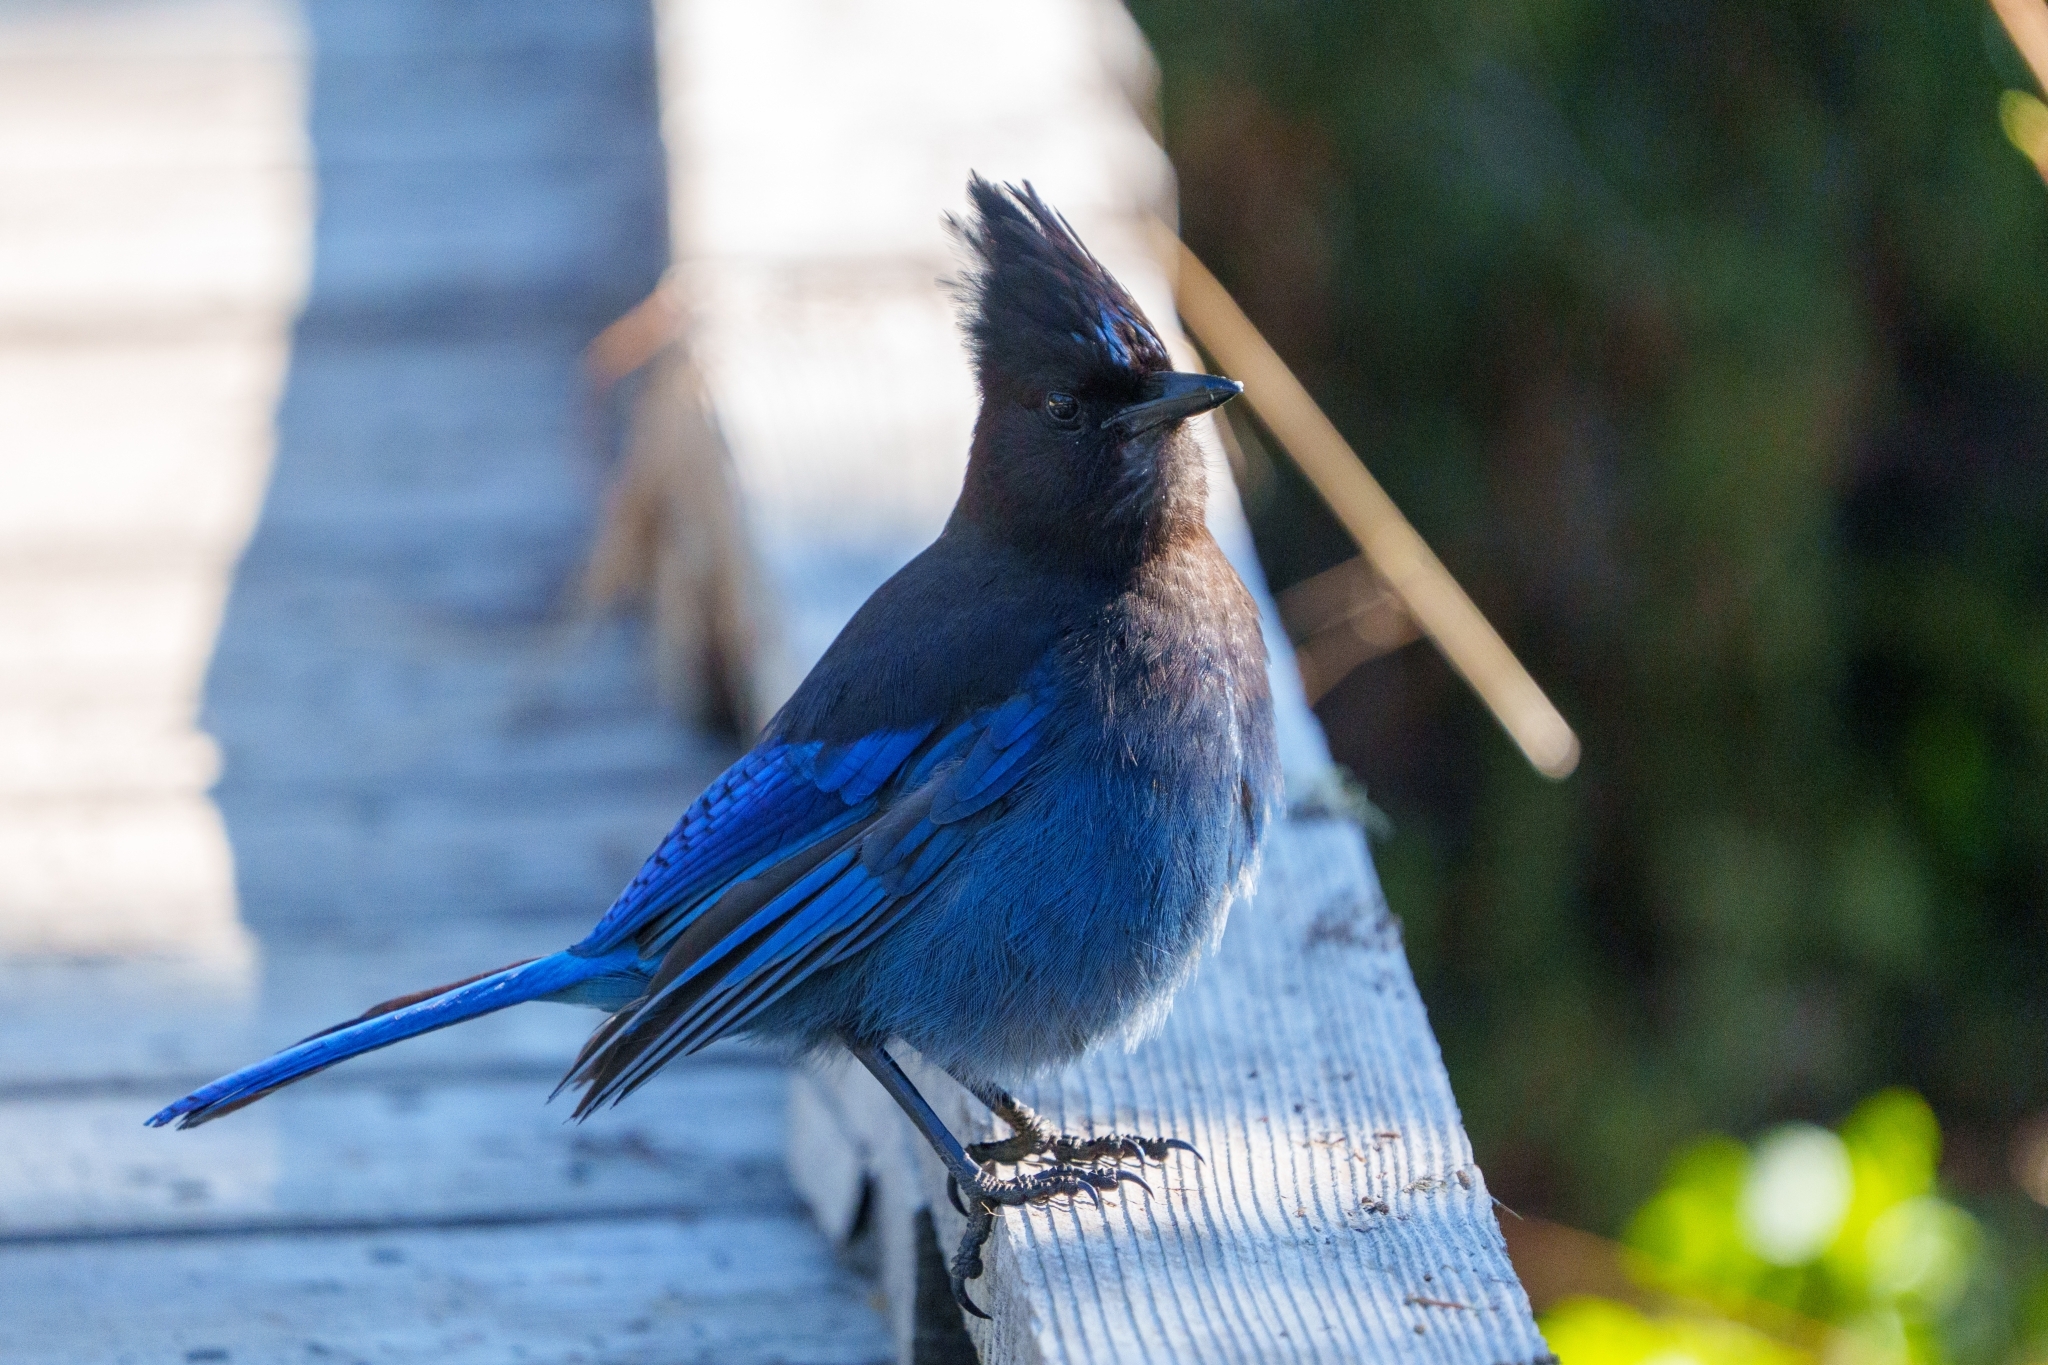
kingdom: Animalia
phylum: Chordata
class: Aves
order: Passeriformes
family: Corvidae
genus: Cyanocitta
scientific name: Cyanocitta stelleri
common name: Steller's jay
